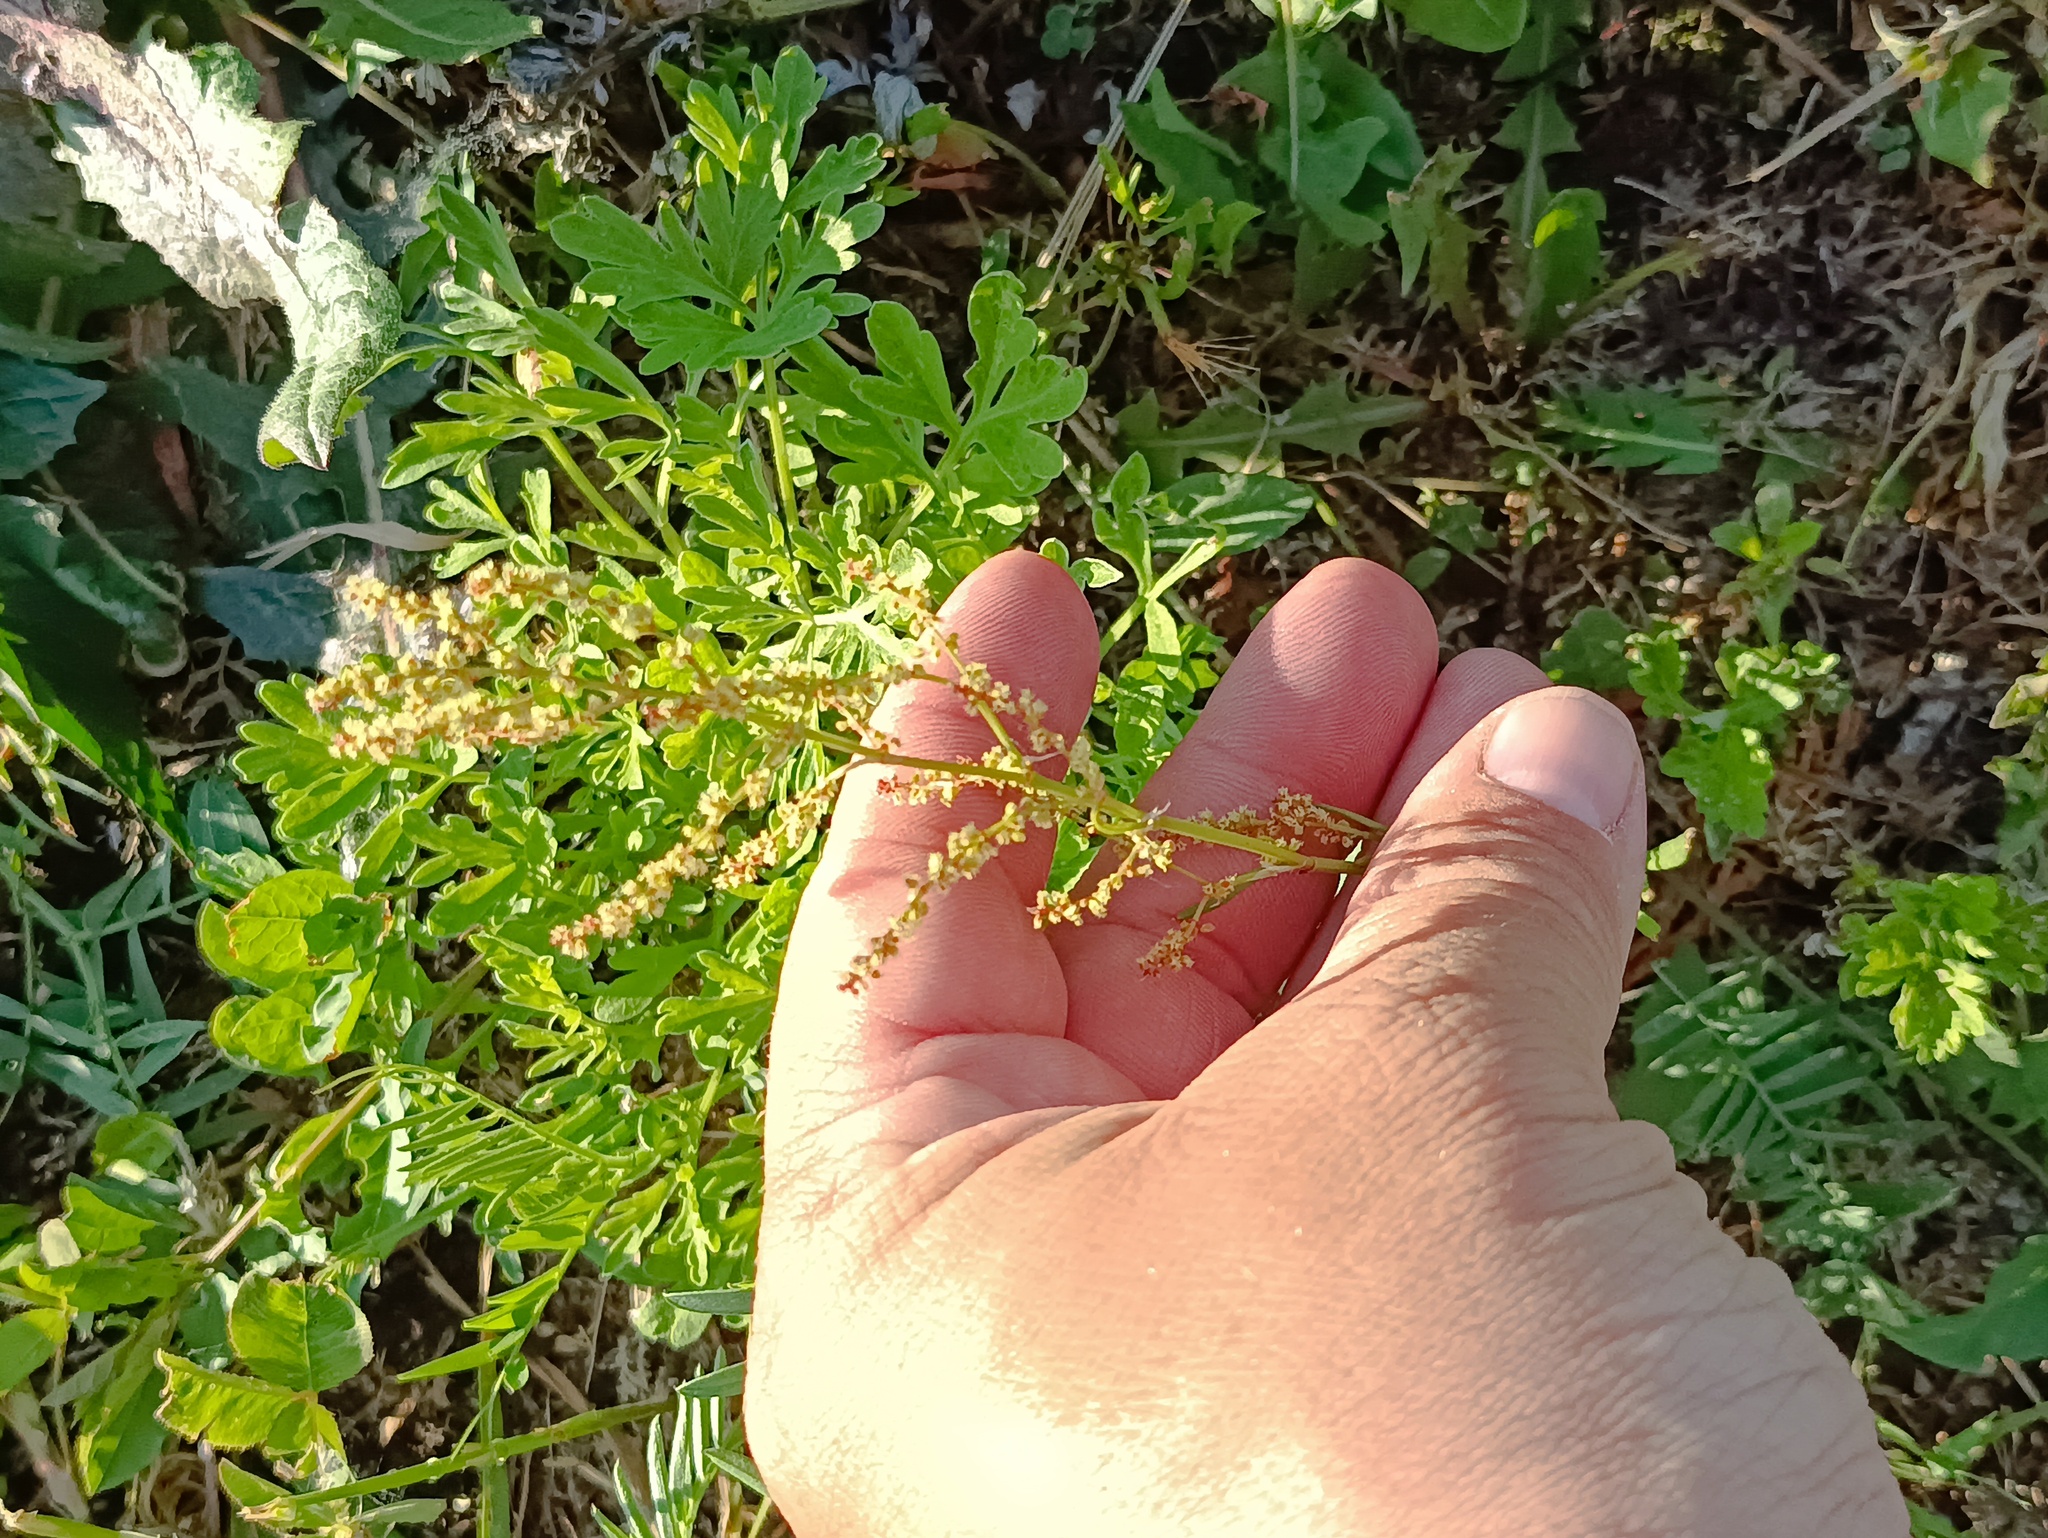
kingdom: Plantae
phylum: Tracheophyta
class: Magnoliopsida
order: Caryophyllales
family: Polygonaceae
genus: Rumex
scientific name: Rumex acetosella
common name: Common sheep sorrel
